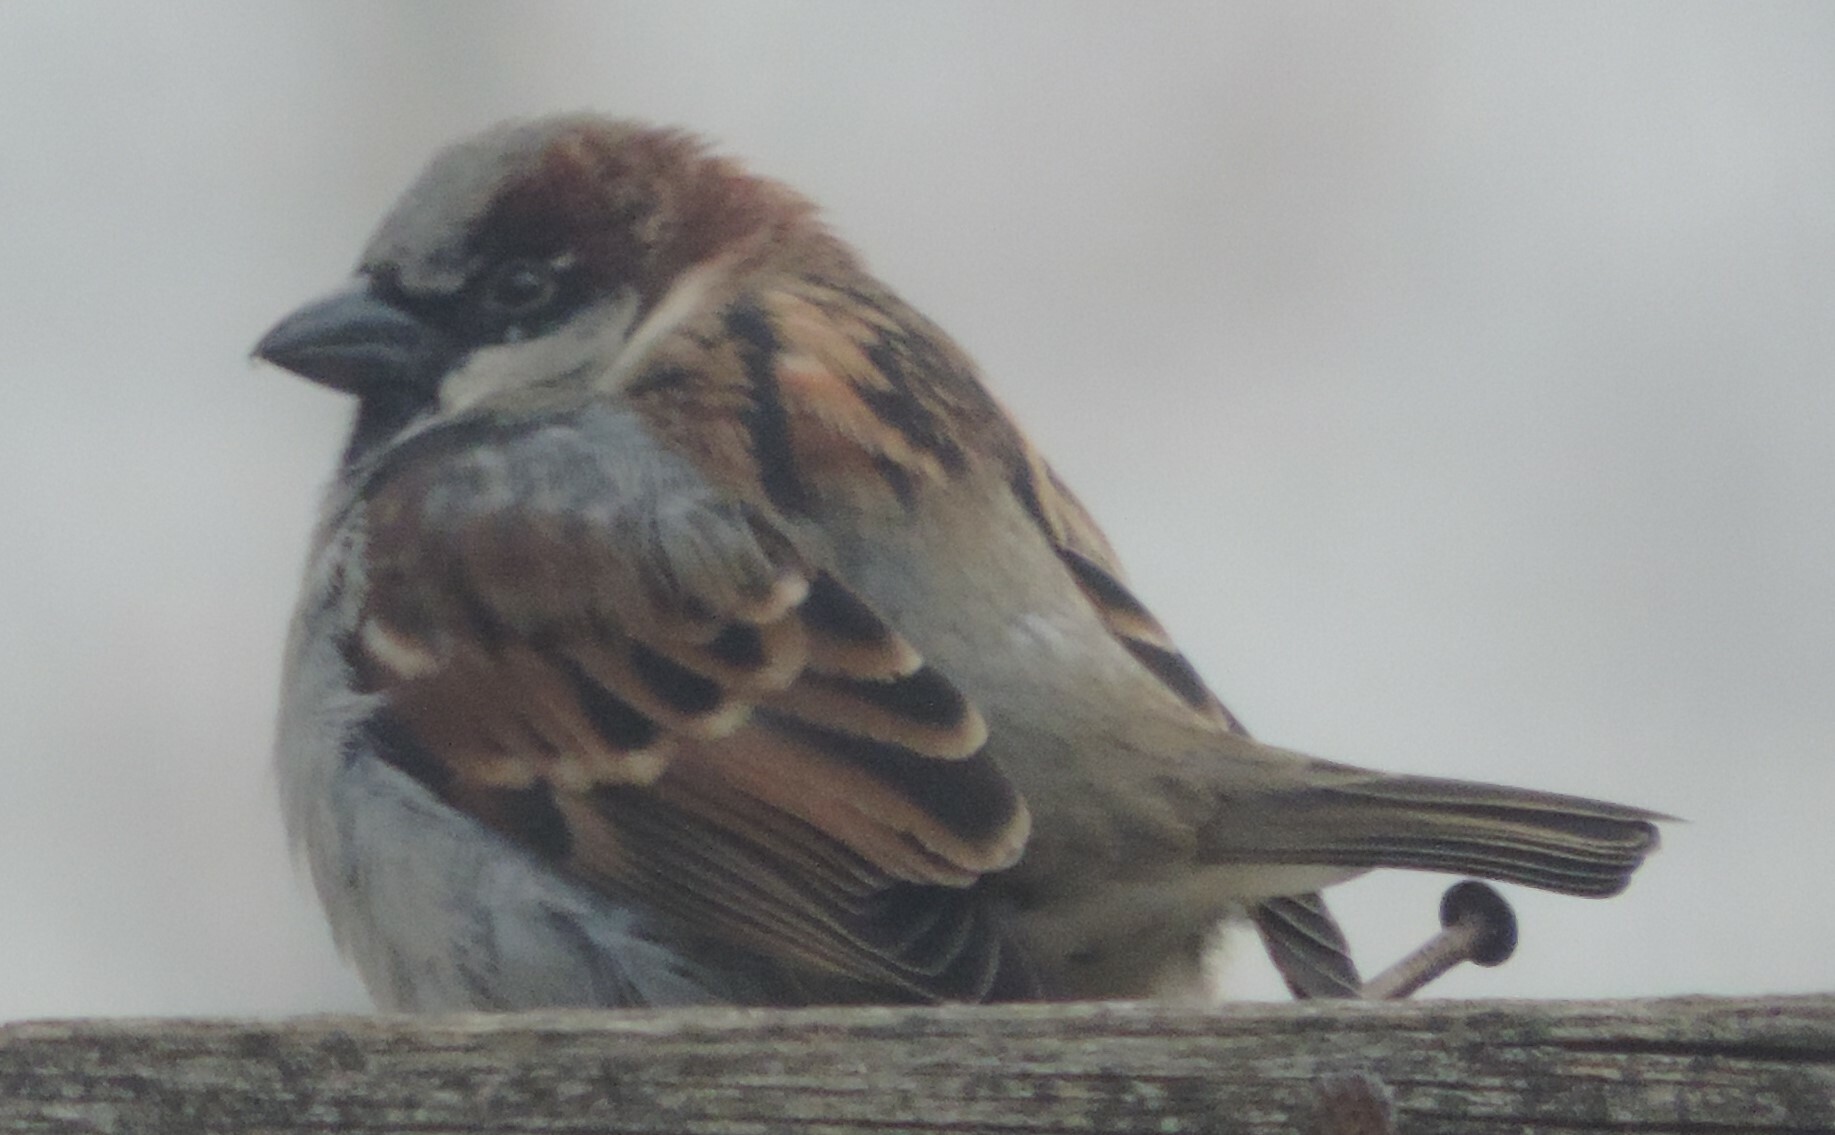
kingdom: Animalia
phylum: Chordata
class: Aves
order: Passeriformes
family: Passeridae
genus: Passer
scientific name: Passer domesticus
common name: House sparrow
